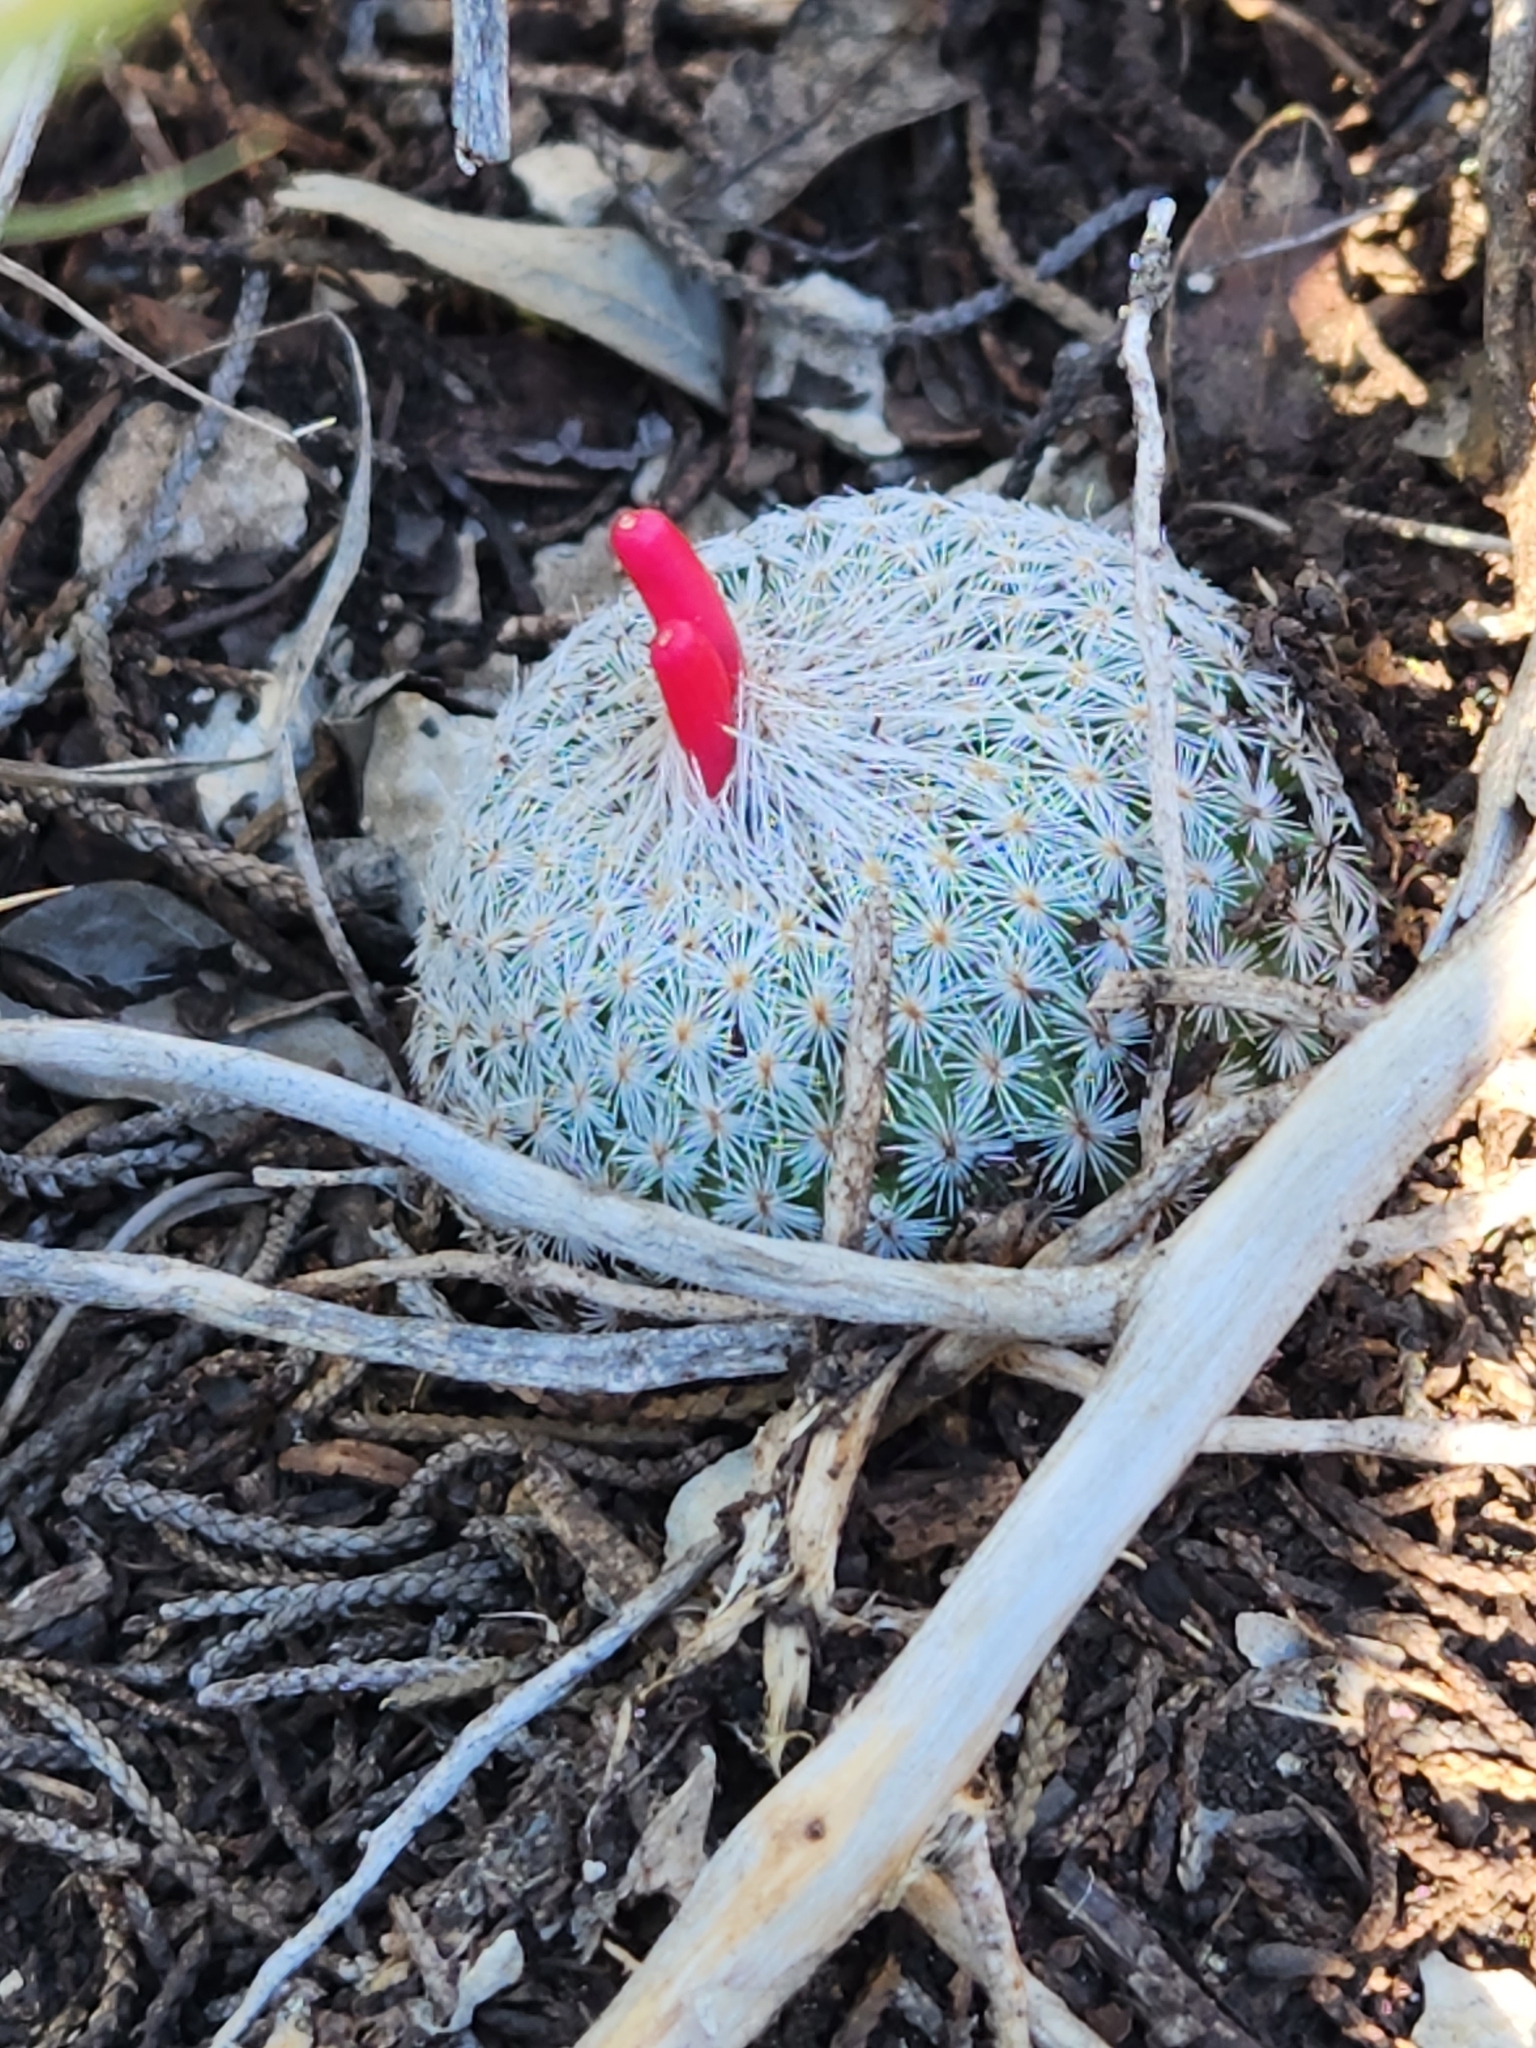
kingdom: Plantae
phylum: Tracheophyta
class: Magnoliopsida
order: Caryophyllales
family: Cactaceae
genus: Epithelantha
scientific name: Epithelantha micromeris
